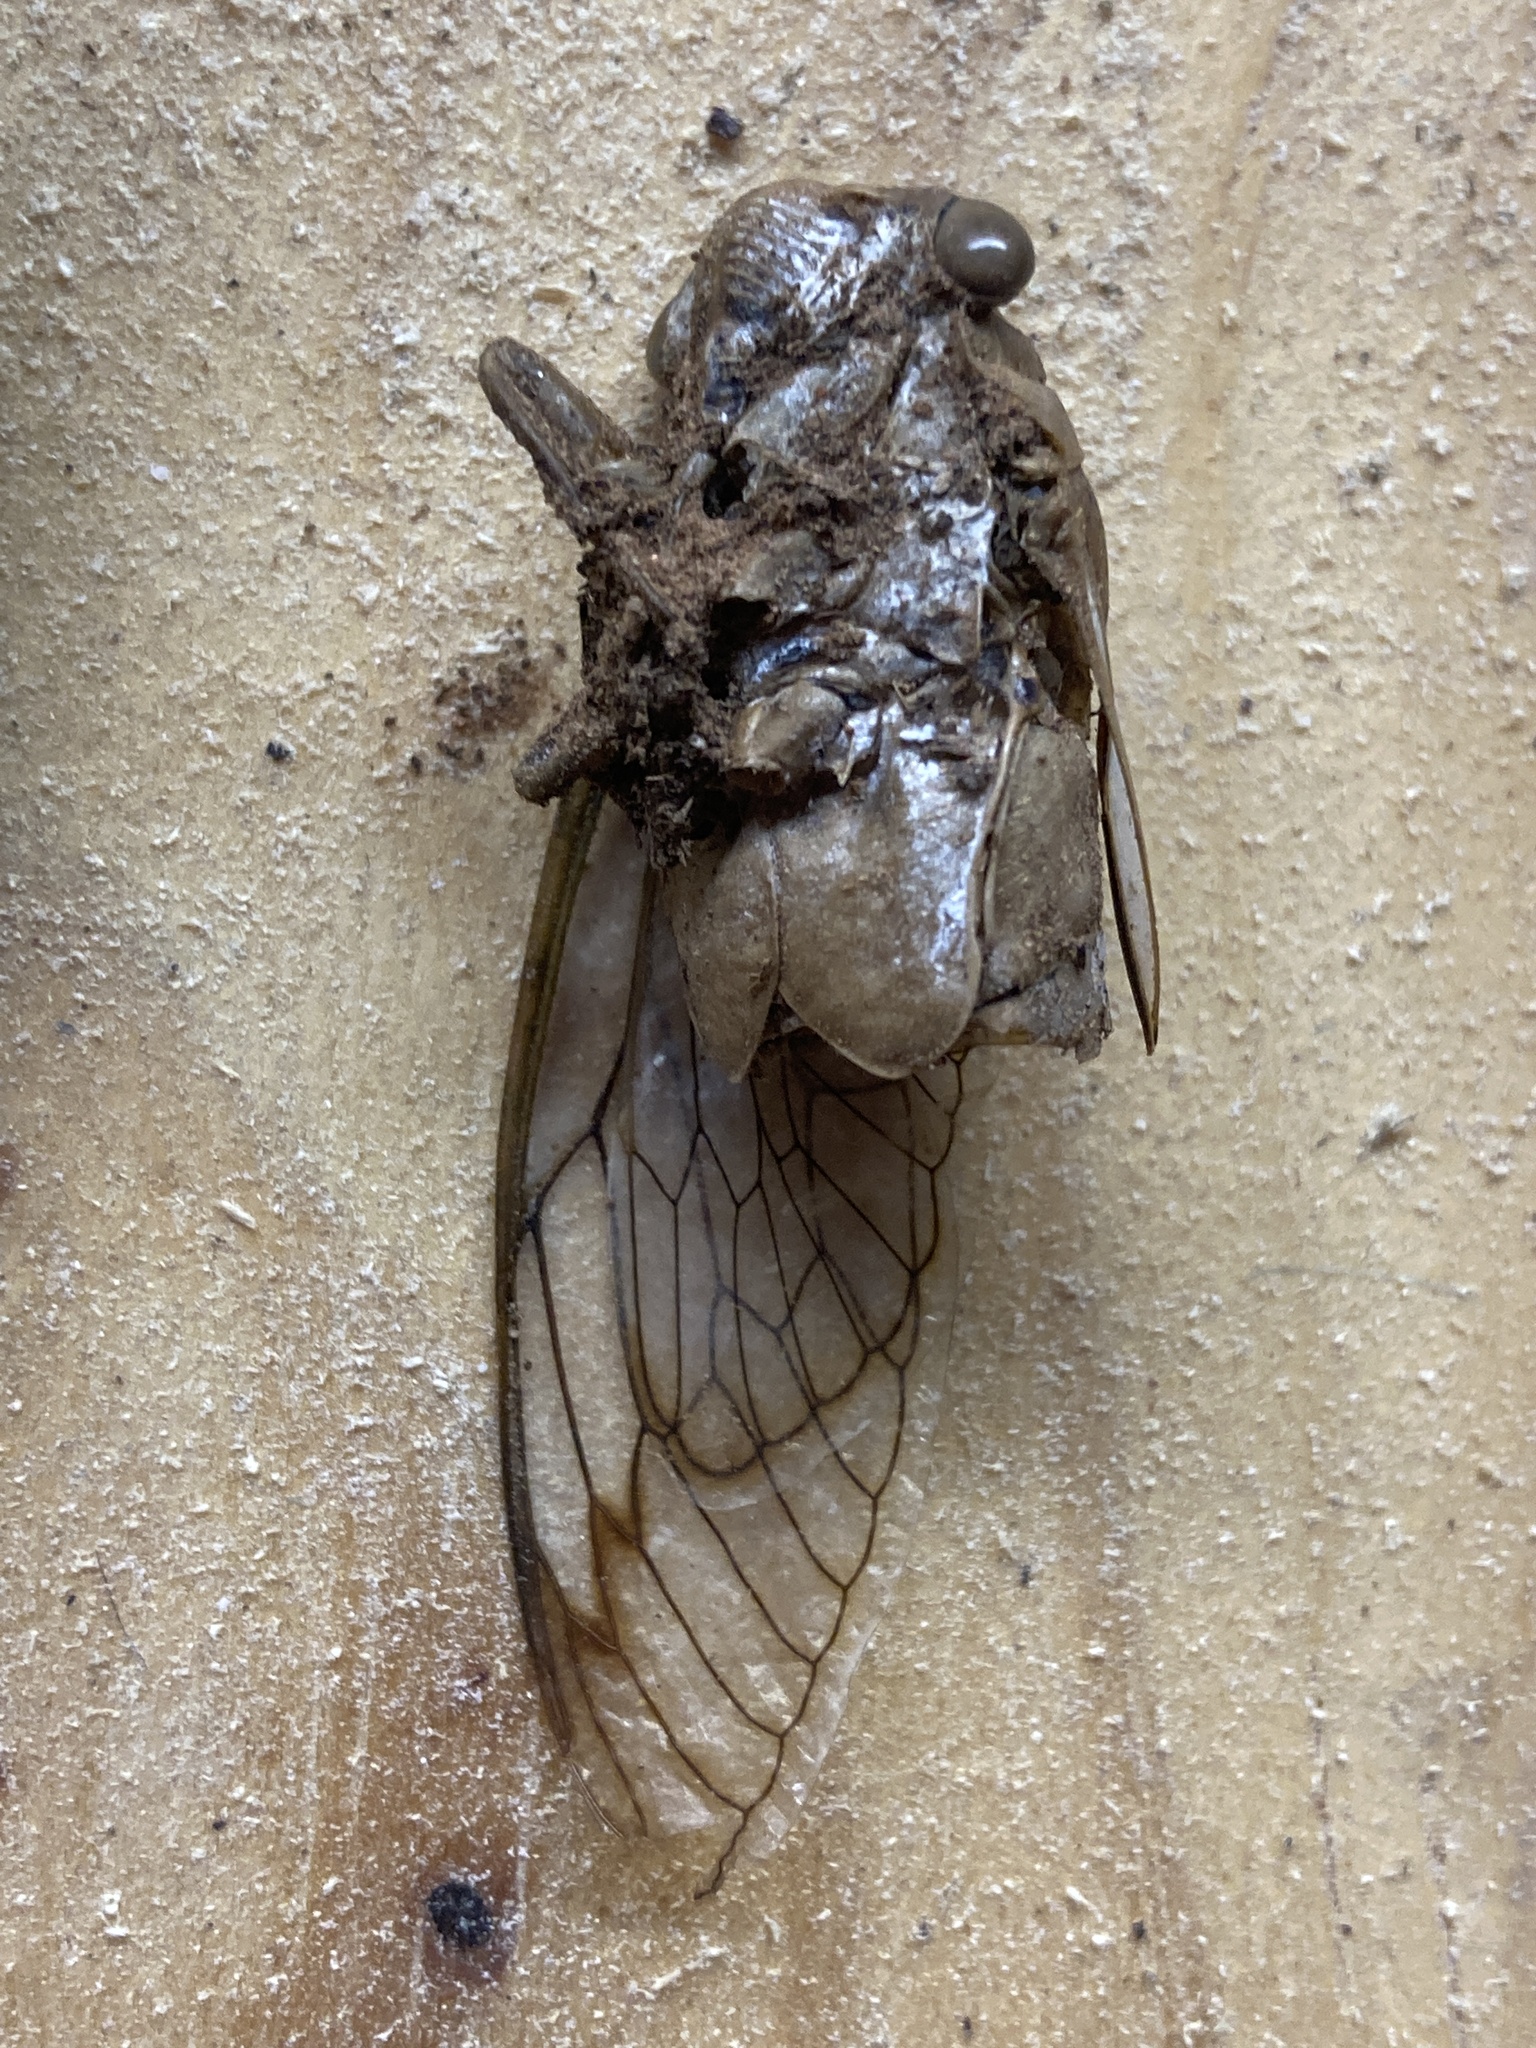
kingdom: Animalia
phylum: Arthropoda
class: Insecta
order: Hemiptera
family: Cicadidae
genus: Neotibicen
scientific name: Neotibicen superbus
